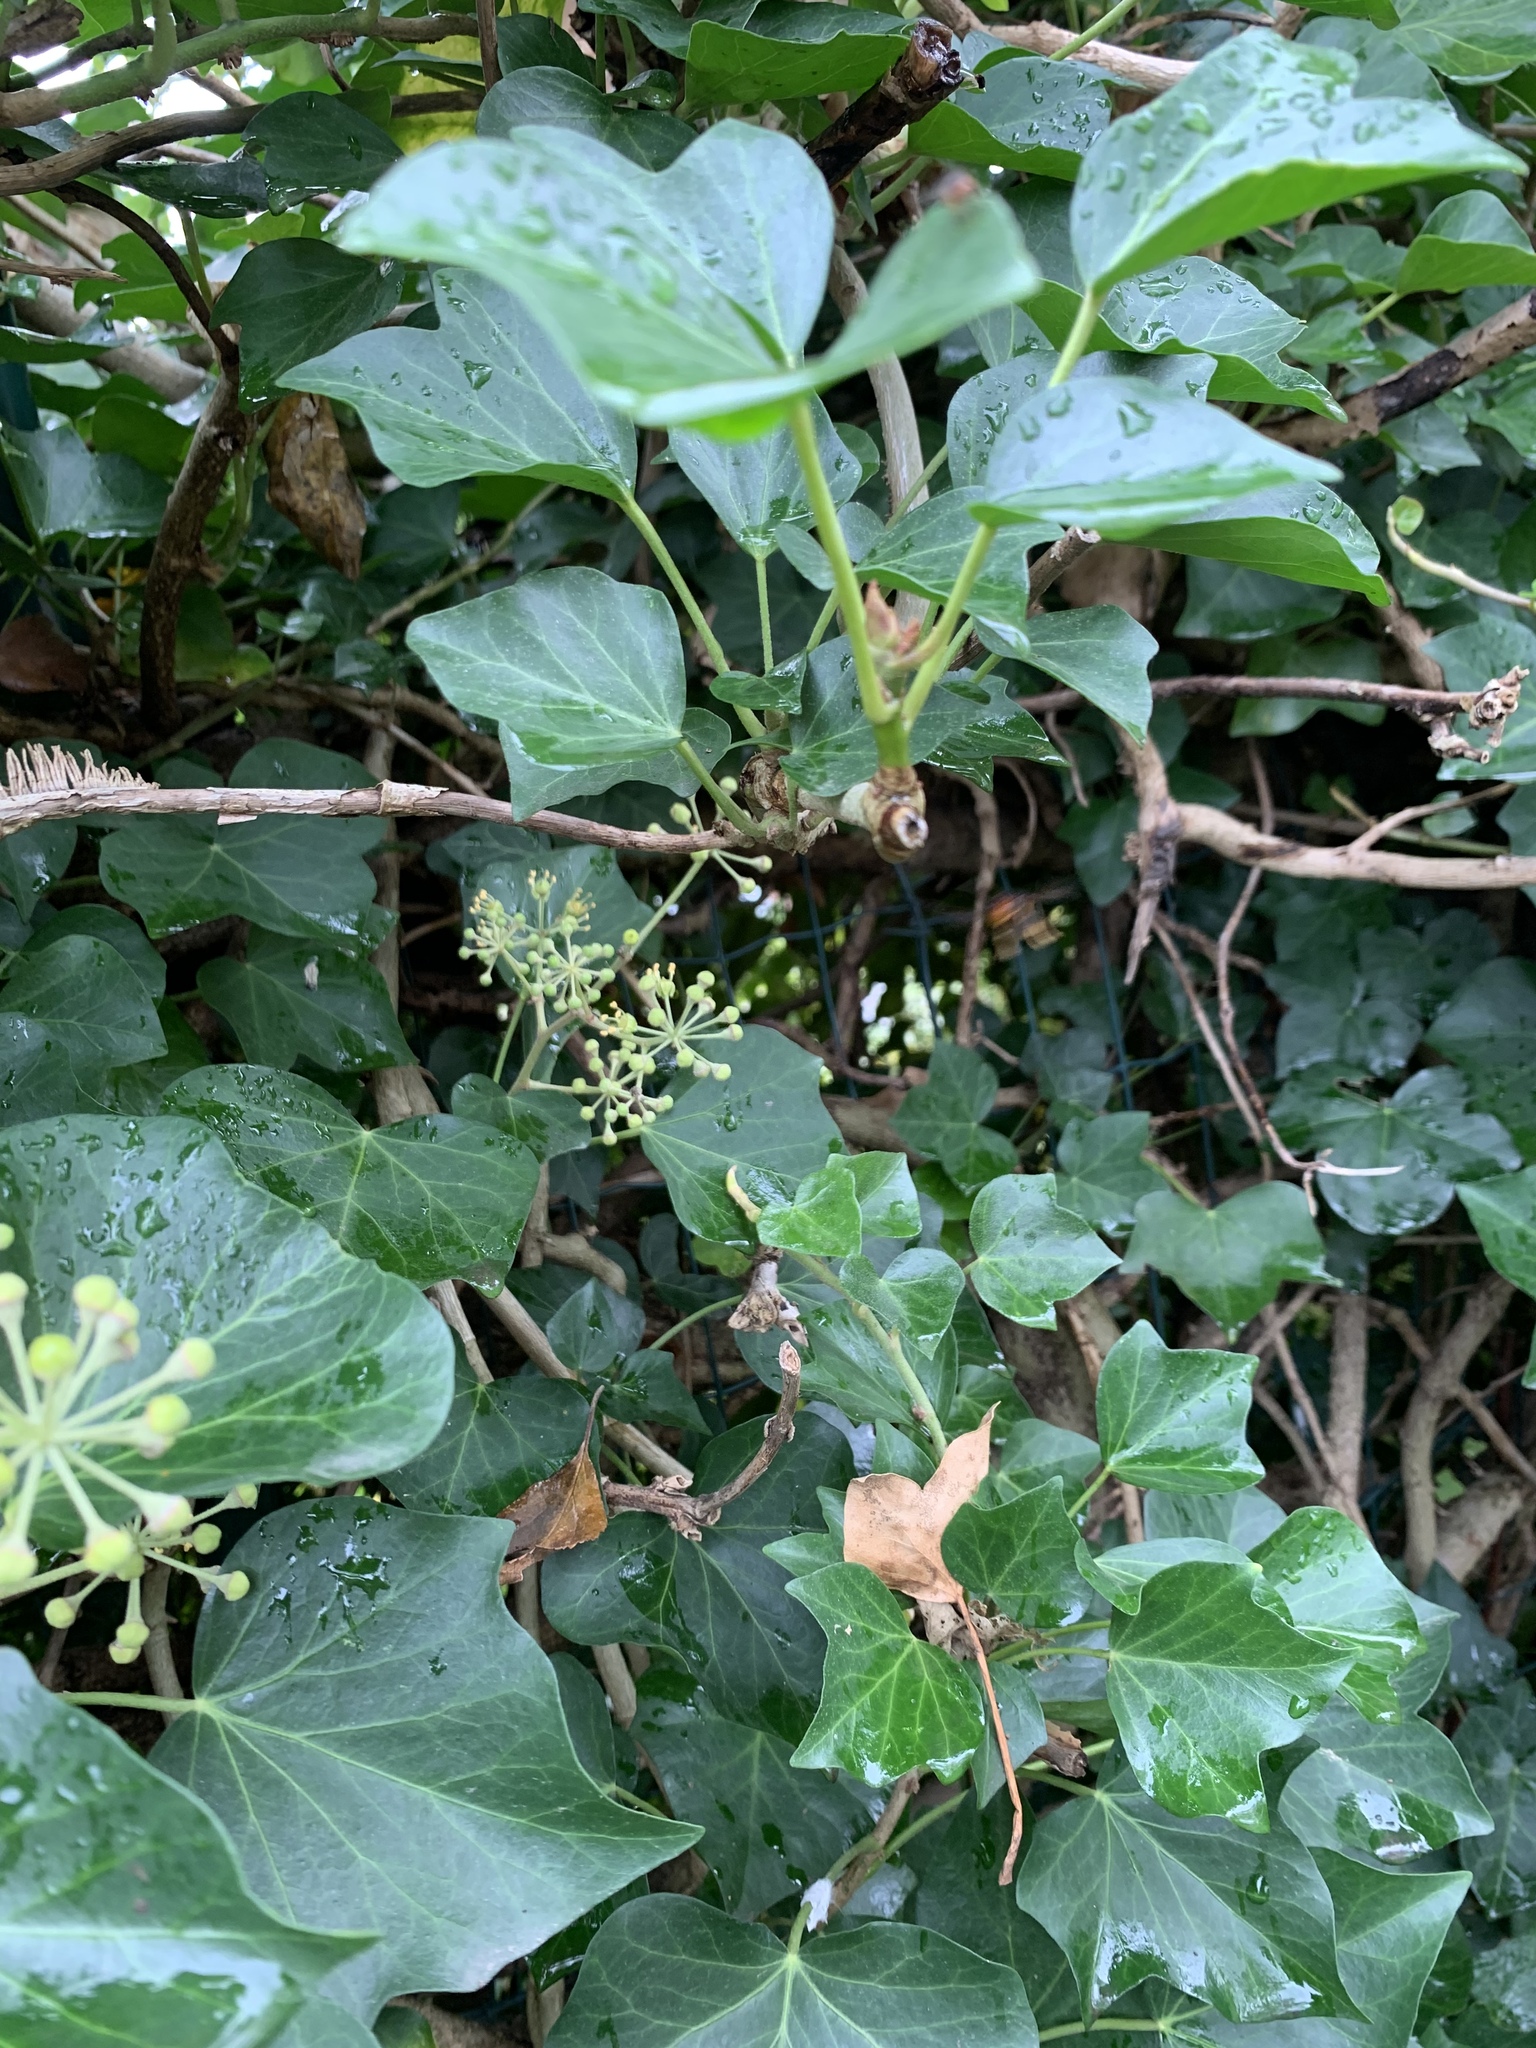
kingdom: Animalia
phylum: Arthropoda
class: Insecta
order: Hymenoptera
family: Vespidae
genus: Vespa
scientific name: Vespa velutina
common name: Asian hornet
